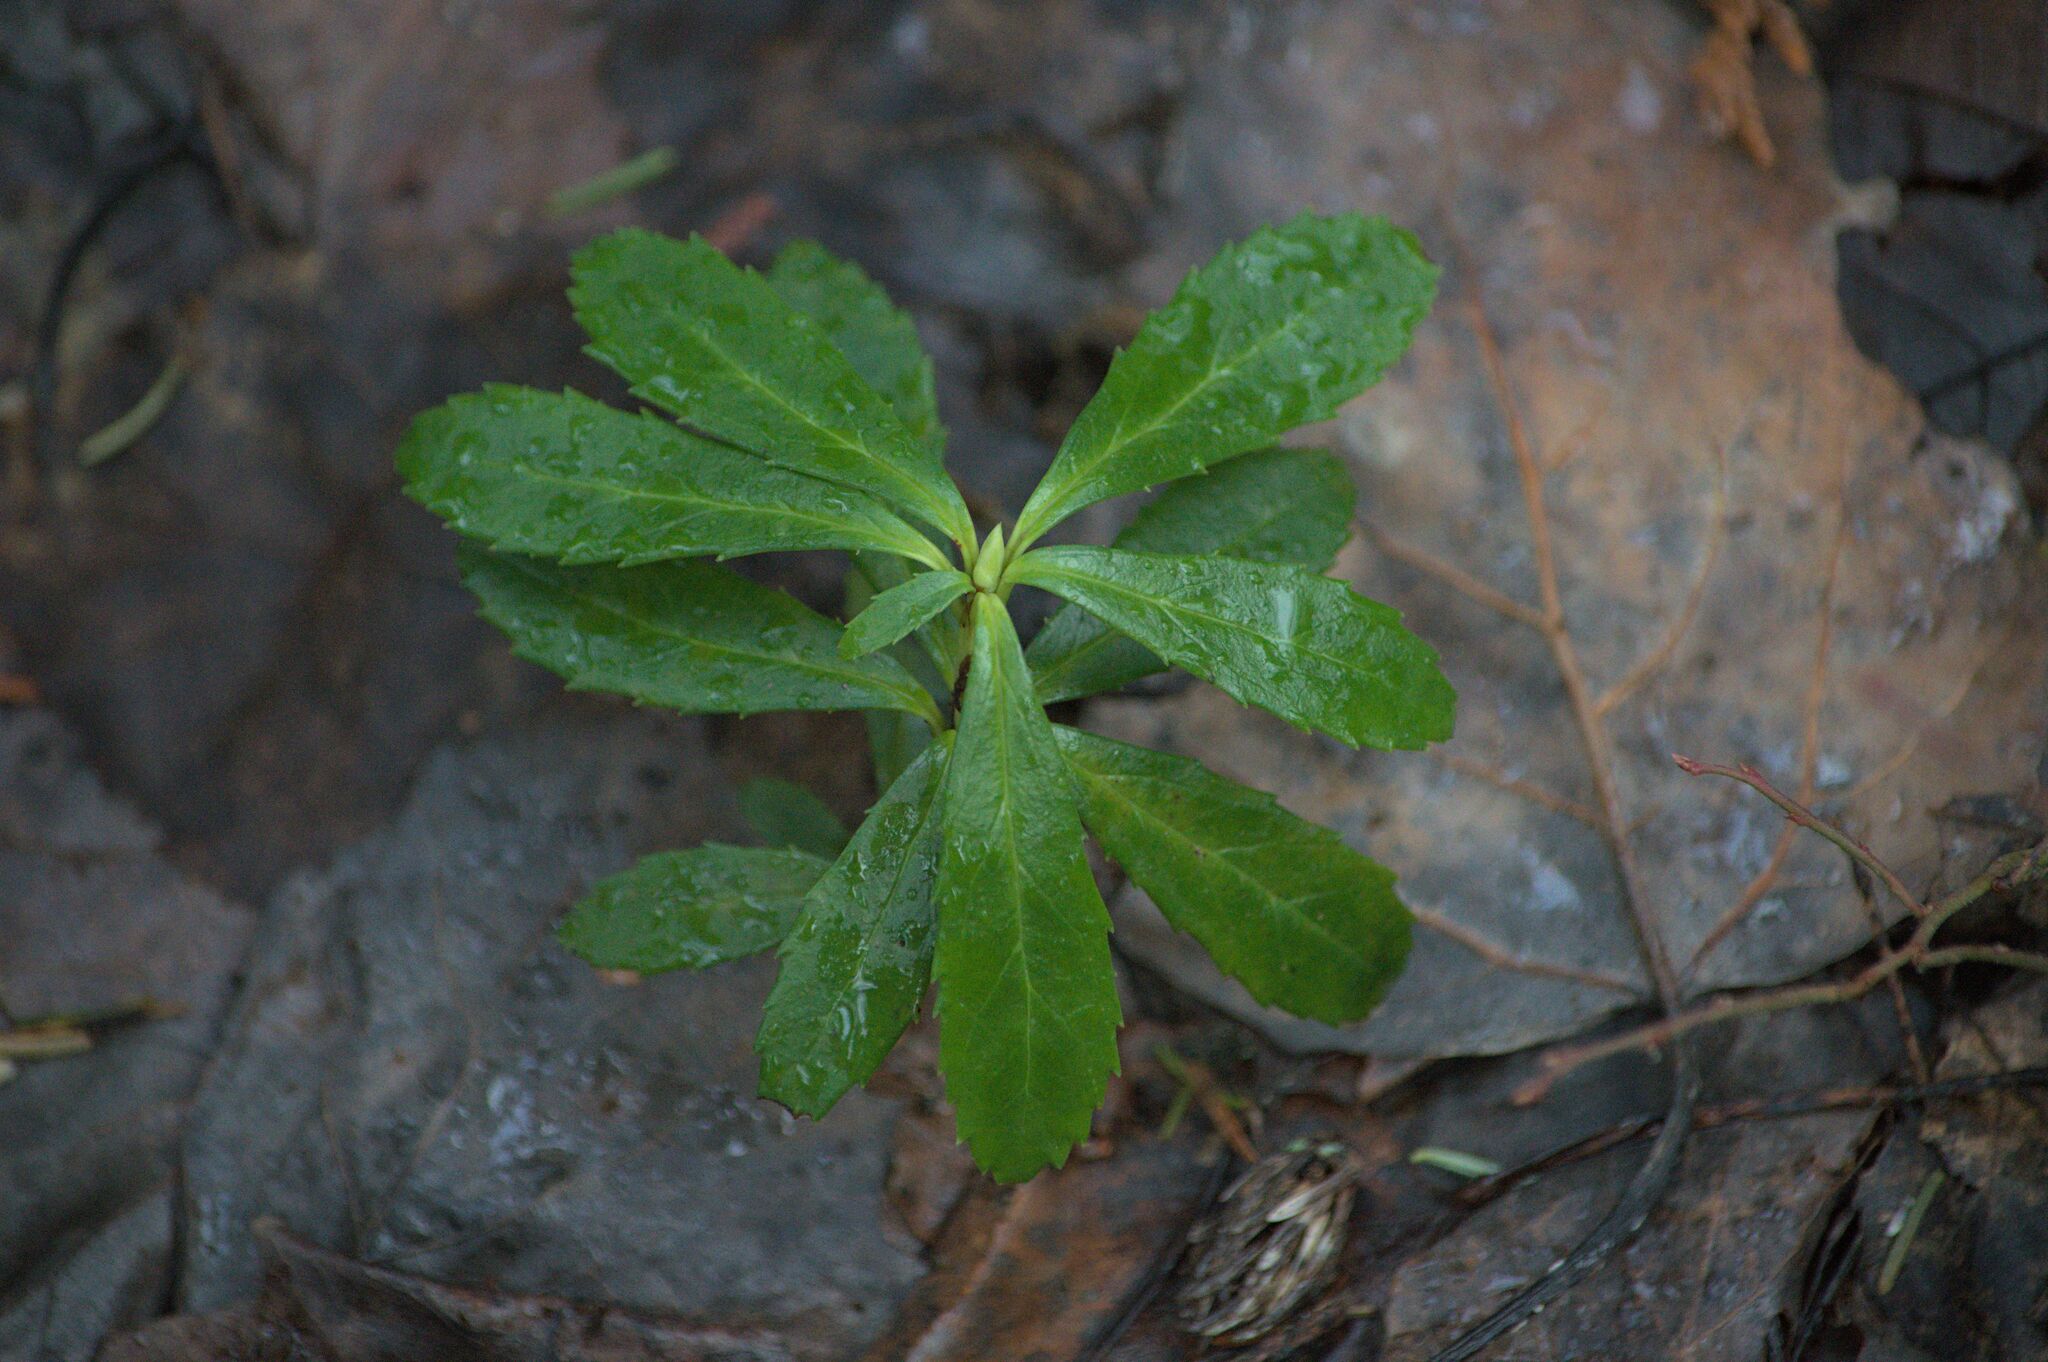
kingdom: Plantae
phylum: Tracheophyta
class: Magnoliopsida
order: Ericales
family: Ericaceae
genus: Chimaphila
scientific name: Chimaphila umbellata
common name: Pipsissewa
